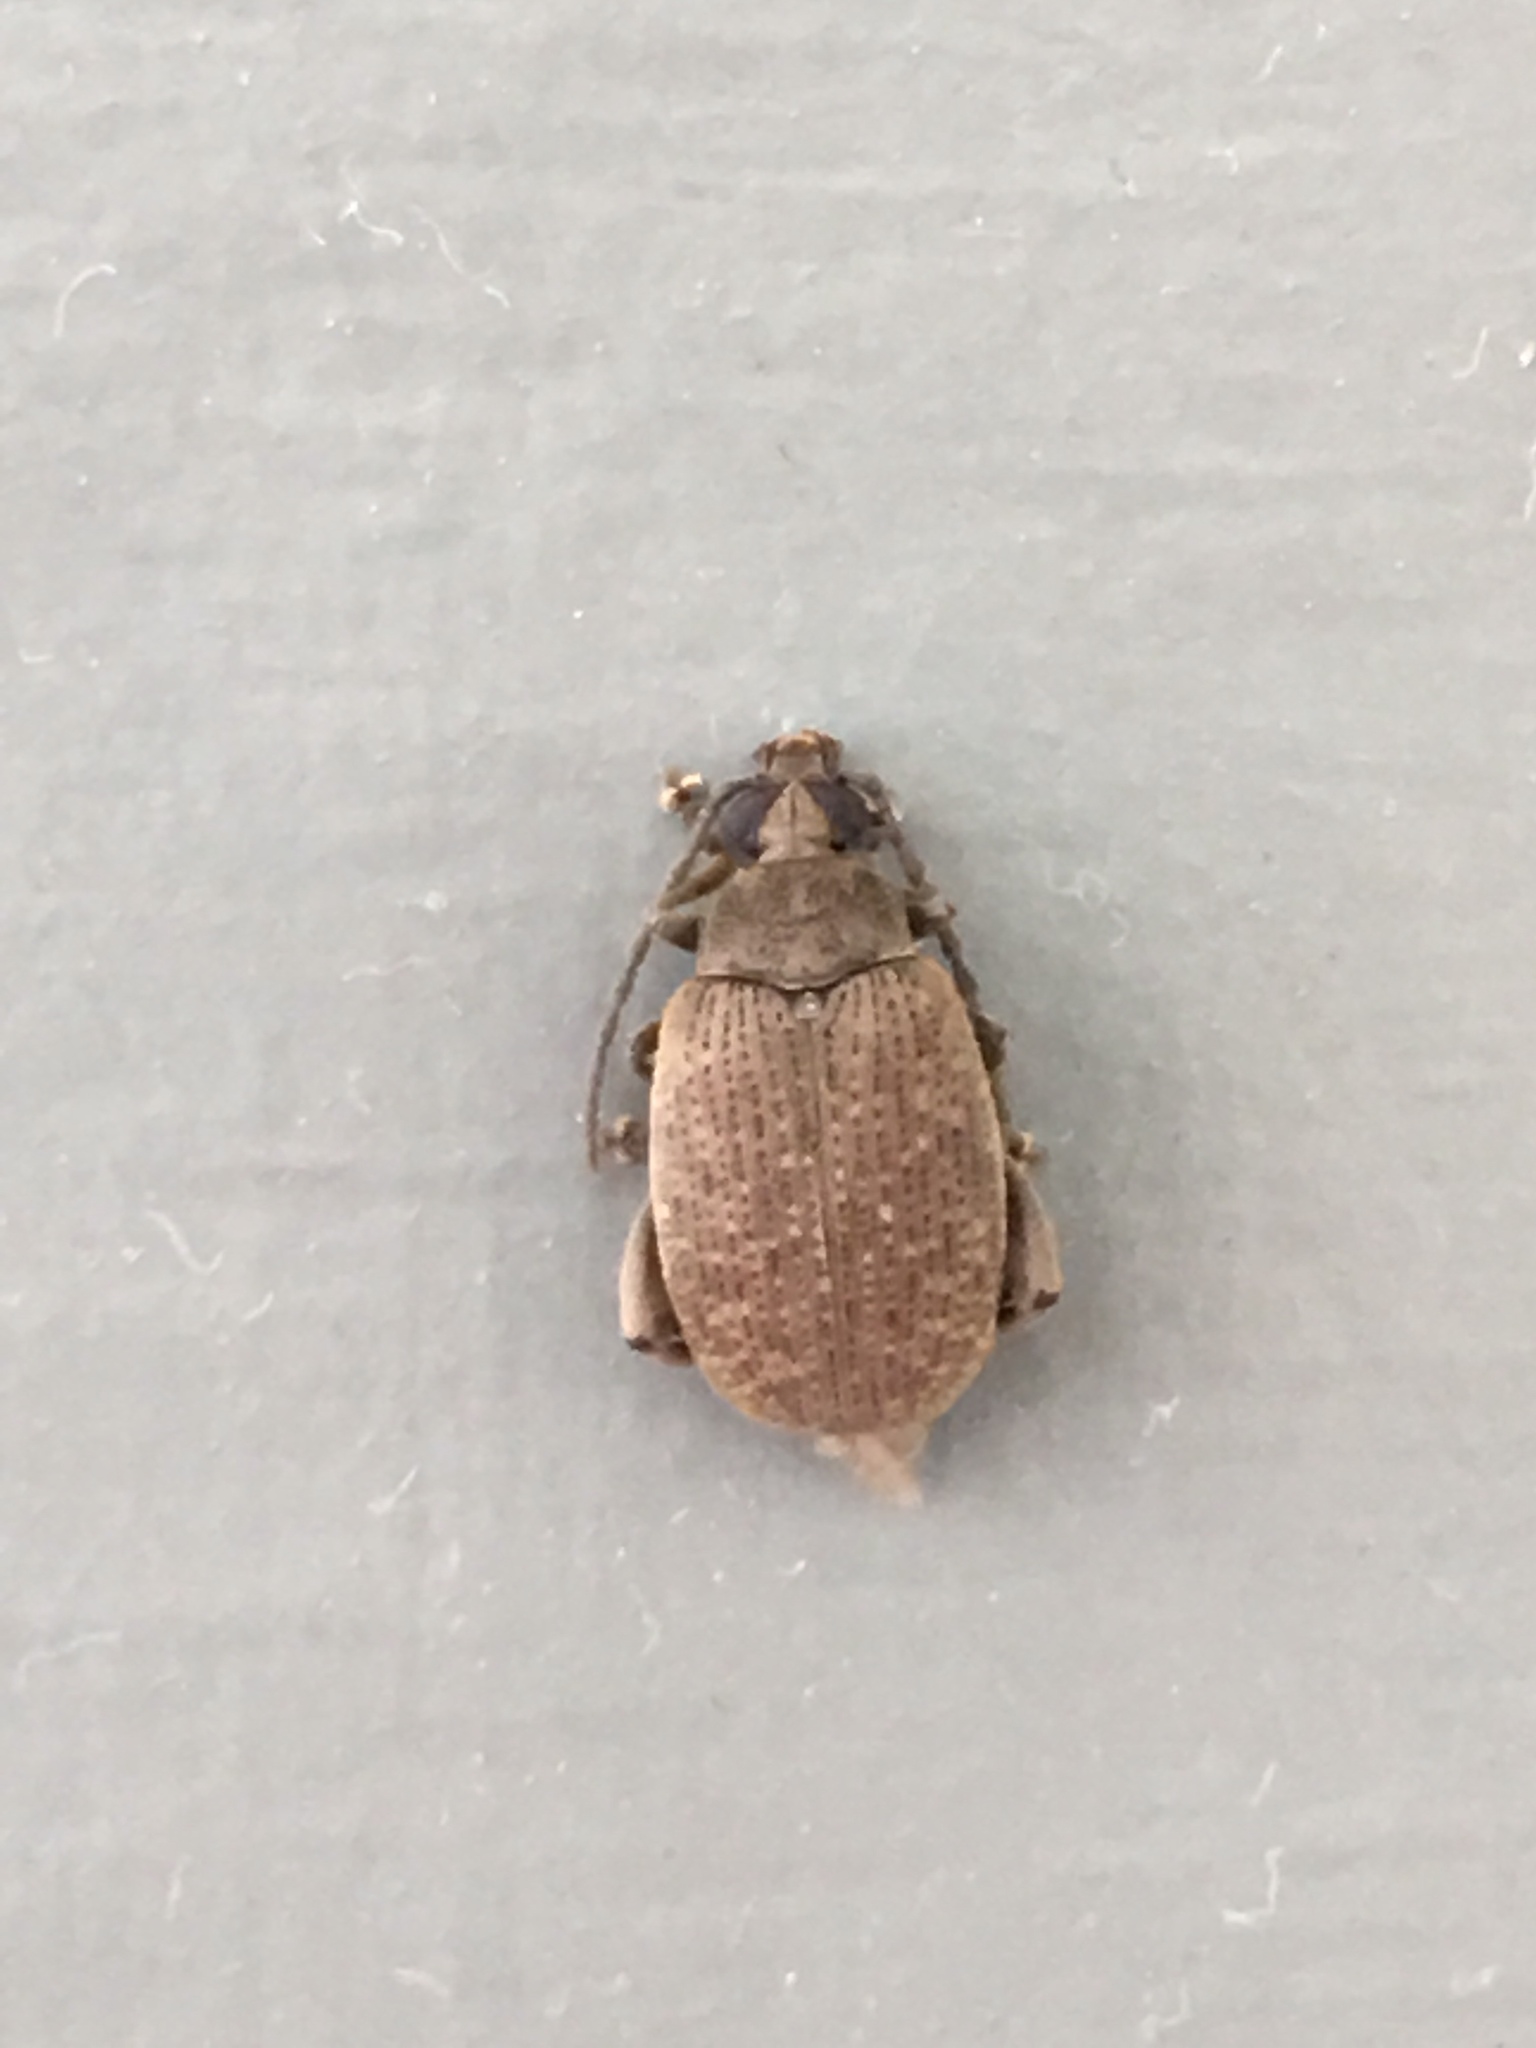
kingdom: Animalia
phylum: Arthropoda
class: Insecta
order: Coleoptera
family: Chrysomelidae
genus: Caryobruchus
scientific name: Caryobruchus gleditsiae
